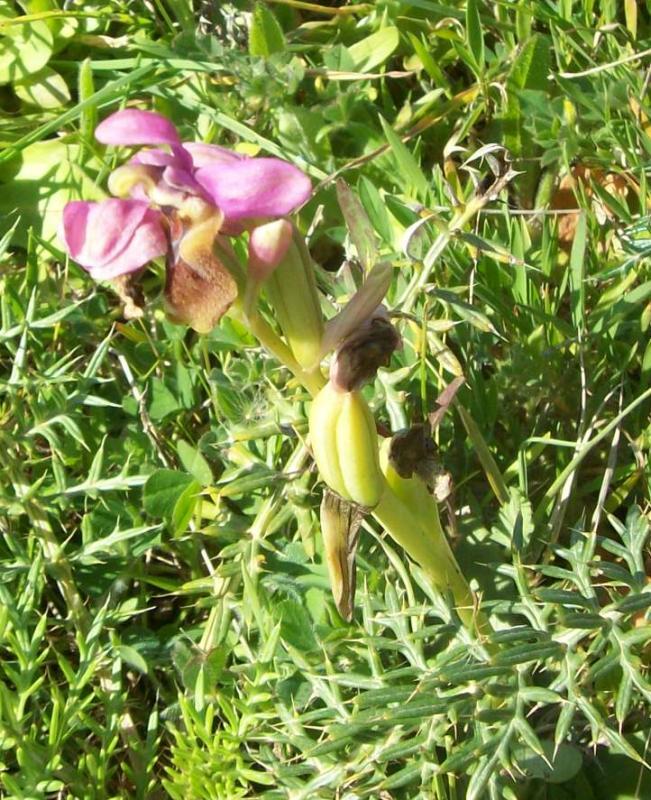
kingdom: Plantae
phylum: Tracheophyta
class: Liliopsida
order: Asparagales
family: Orchidaceae
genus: Ophrys
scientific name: Ophrys tenthredinifera
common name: Sawfly orchid
